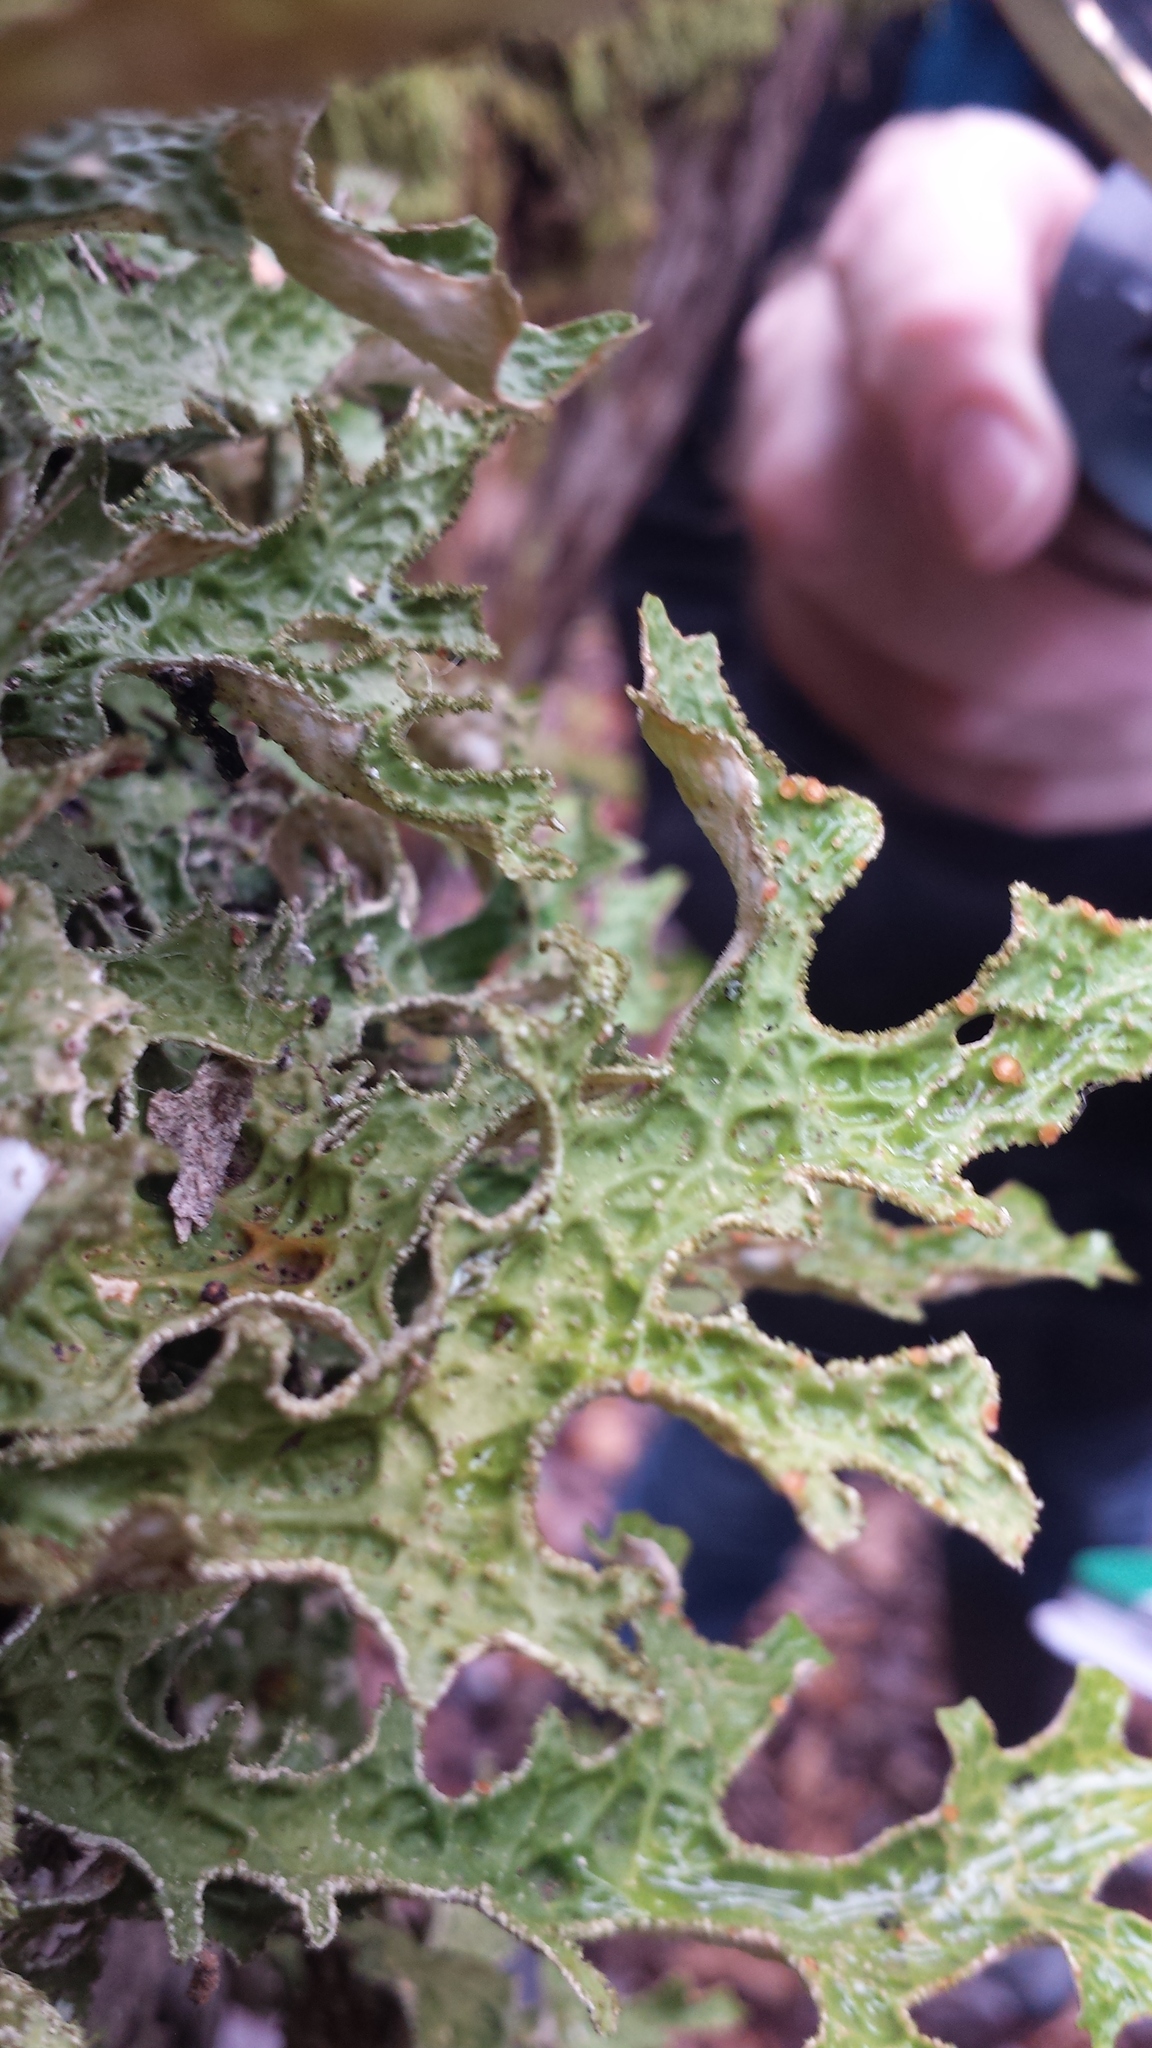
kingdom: Fungi
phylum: Ascomycota
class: Lecanoromycetes
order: Peltigerales
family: Lobariaceae
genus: Lobaria
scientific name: Lobaria pulmonaria
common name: Lungwort
